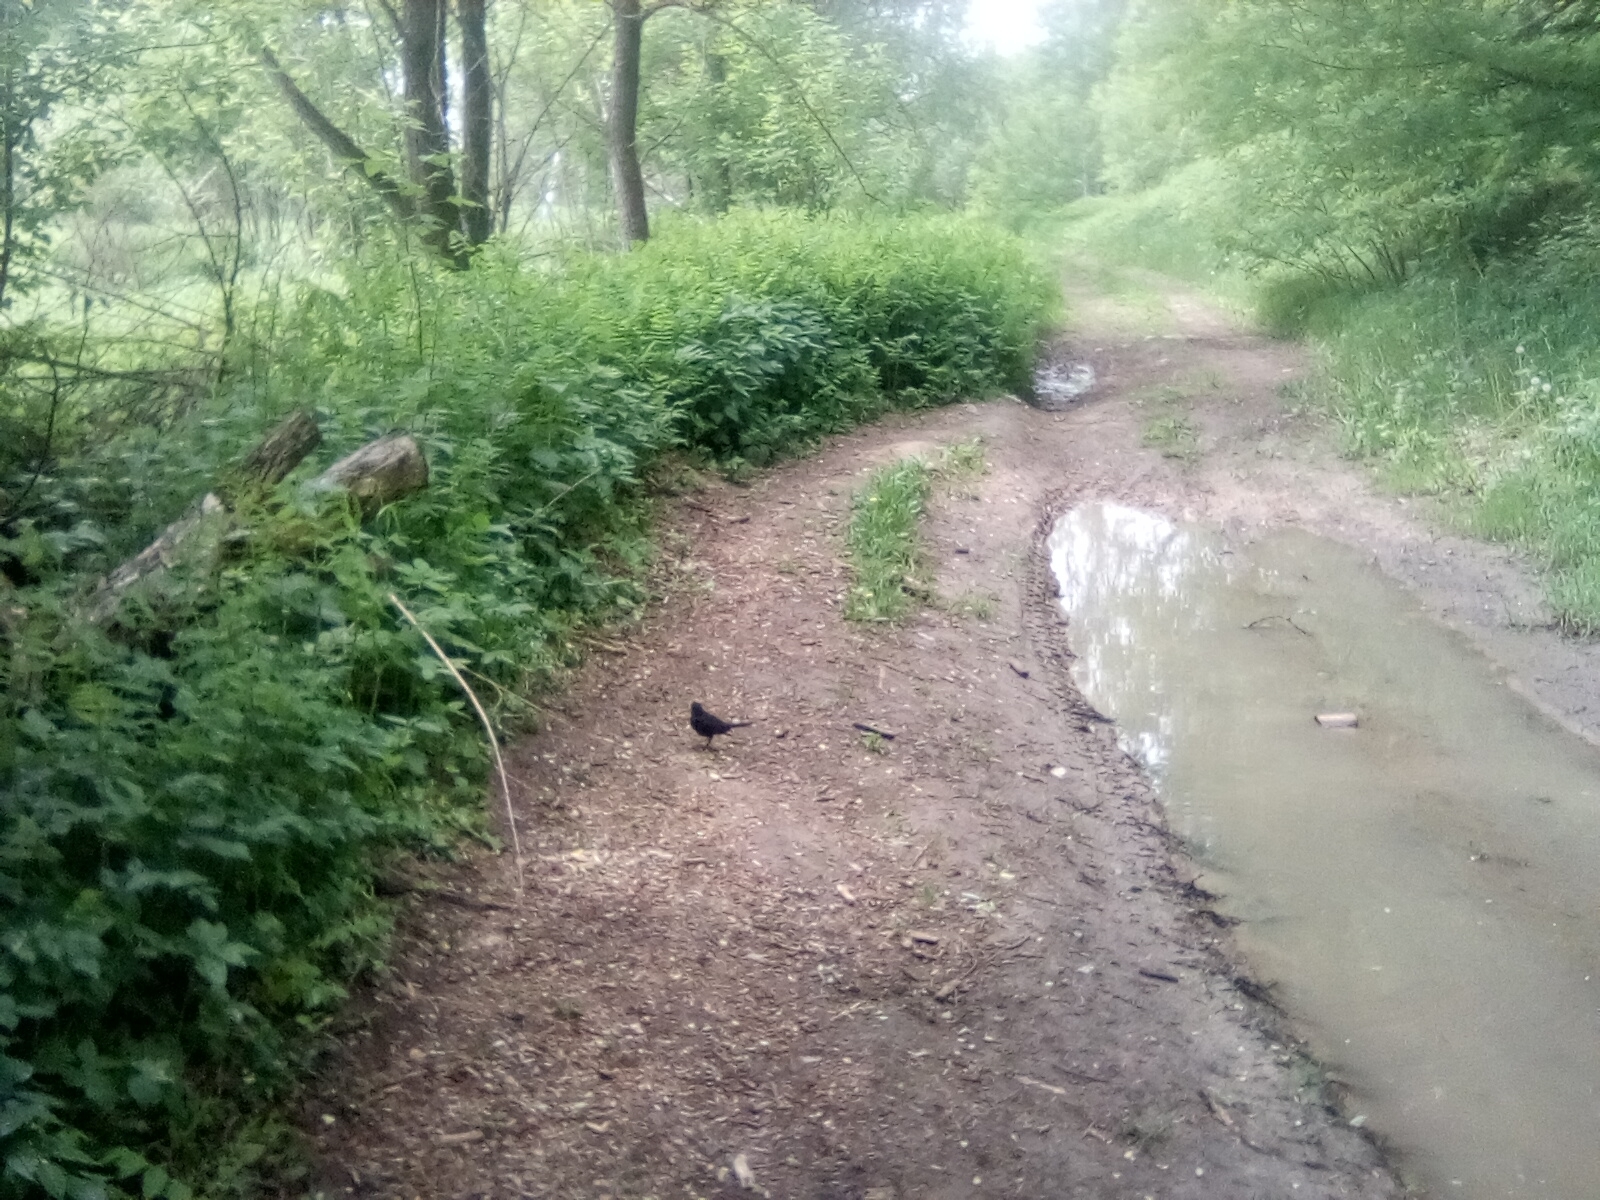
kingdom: Animalia
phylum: Chordata
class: Aves
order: Passeriformes
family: Turdidae
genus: Turdus
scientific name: Turdus merula
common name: Common blackbird
